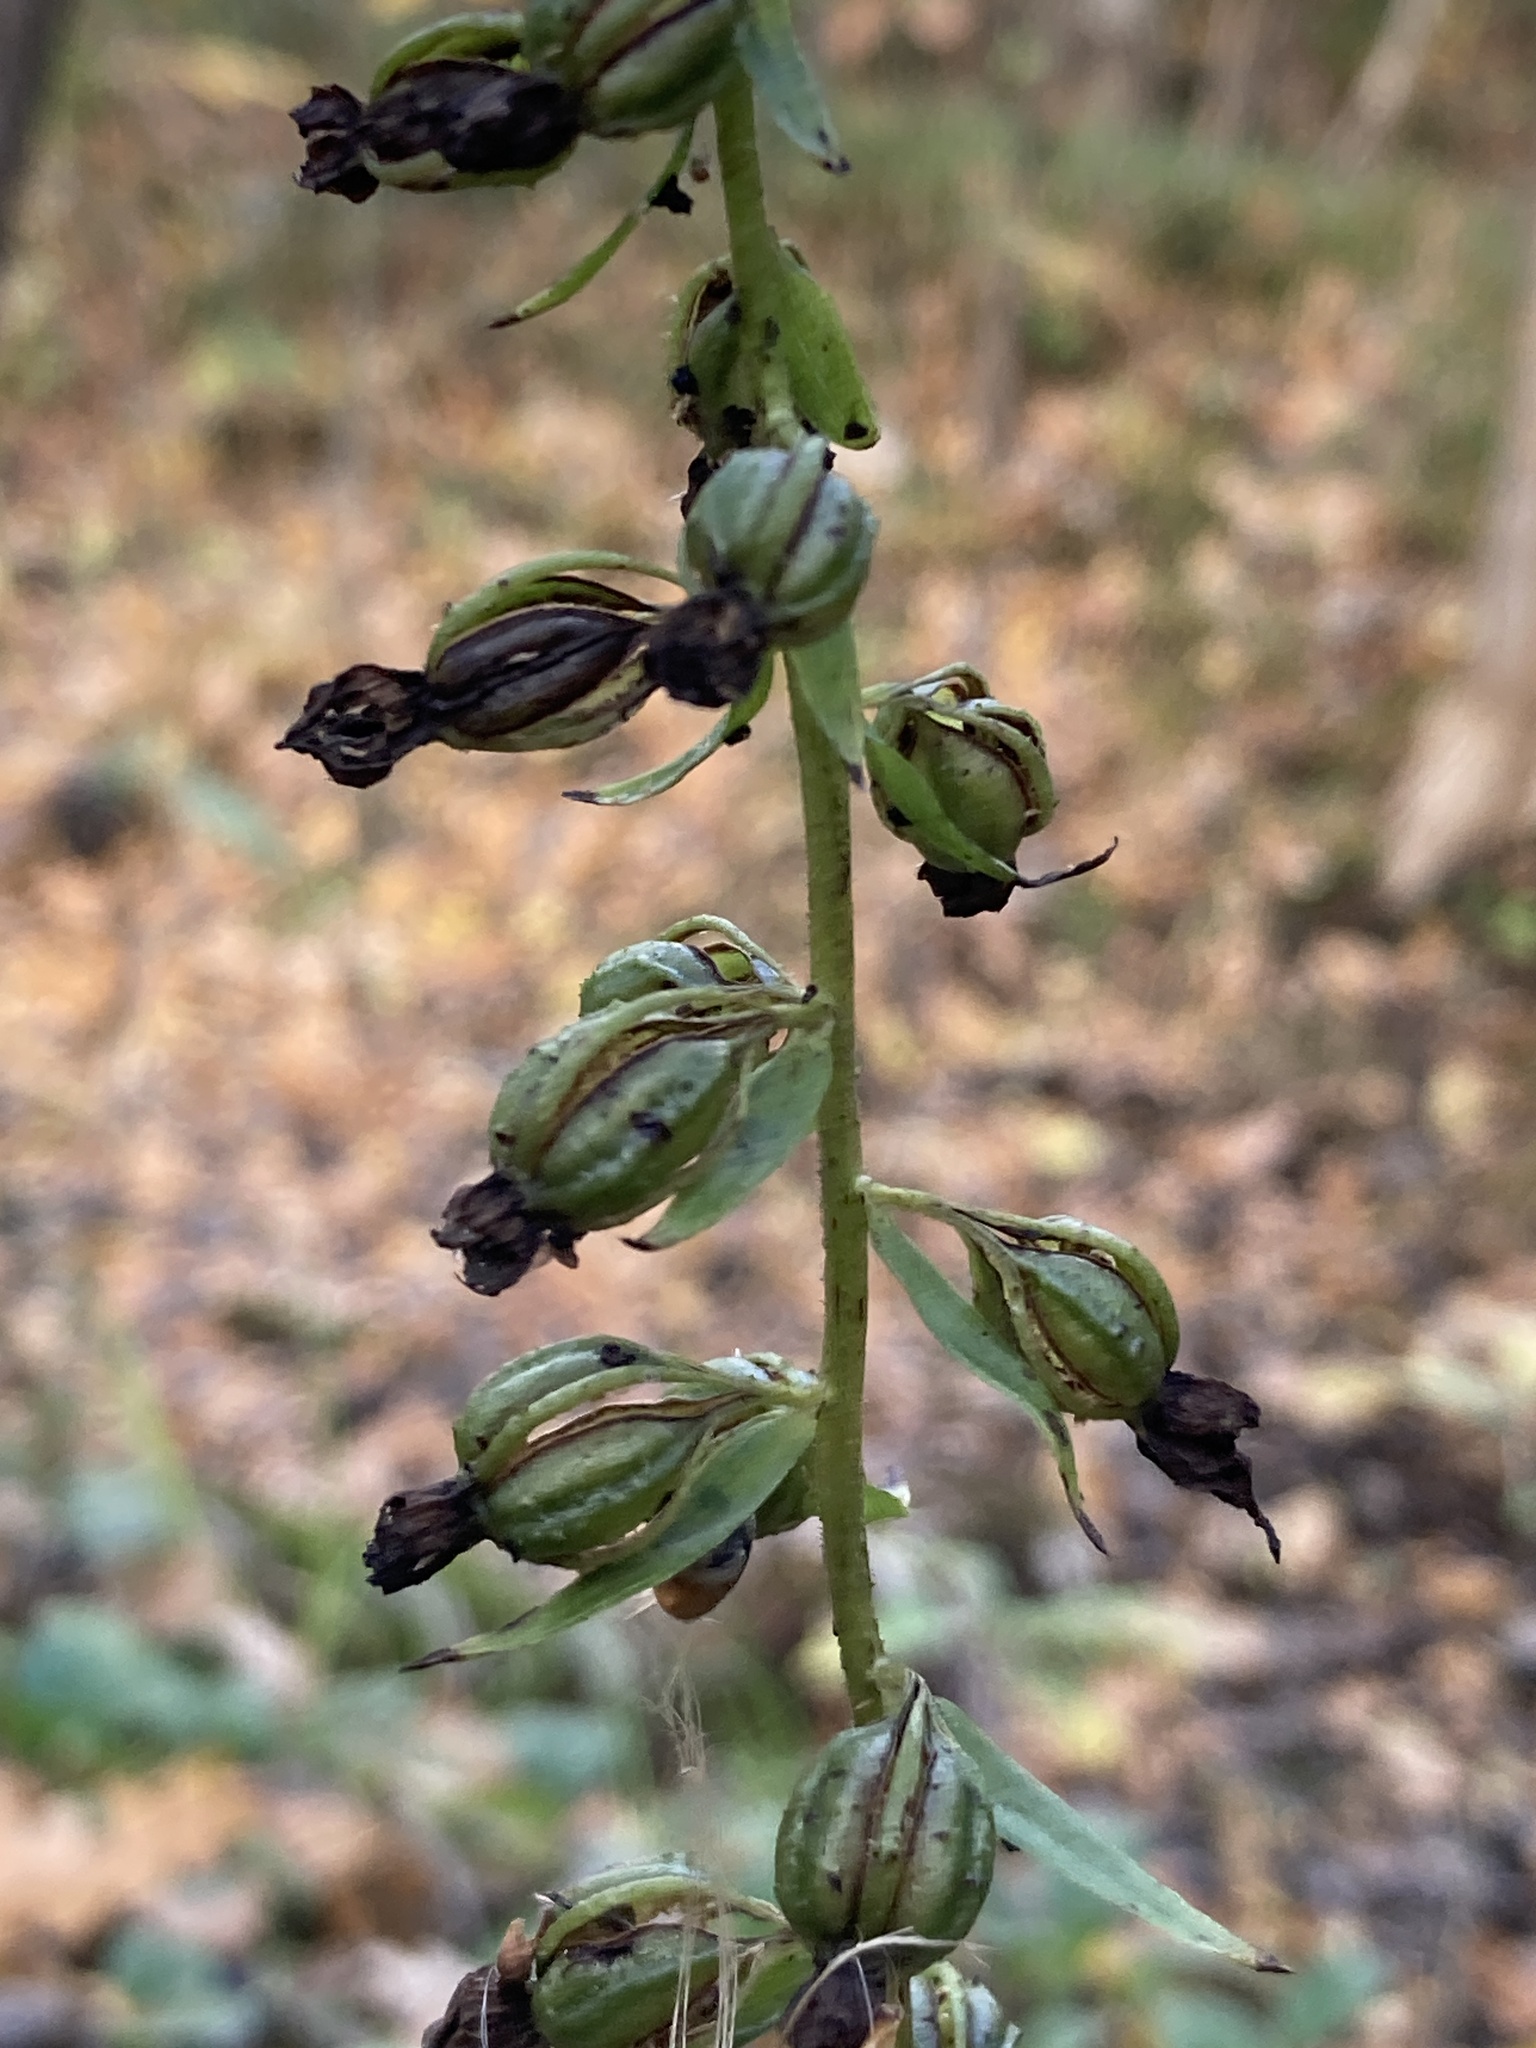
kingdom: Plantae
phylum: Tracheophyta
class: Liliopsida
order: Asparagales
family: Orchidaceae
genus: Epipactis
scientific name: Epipactis helleborine
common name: Broad-leaved helleborine
